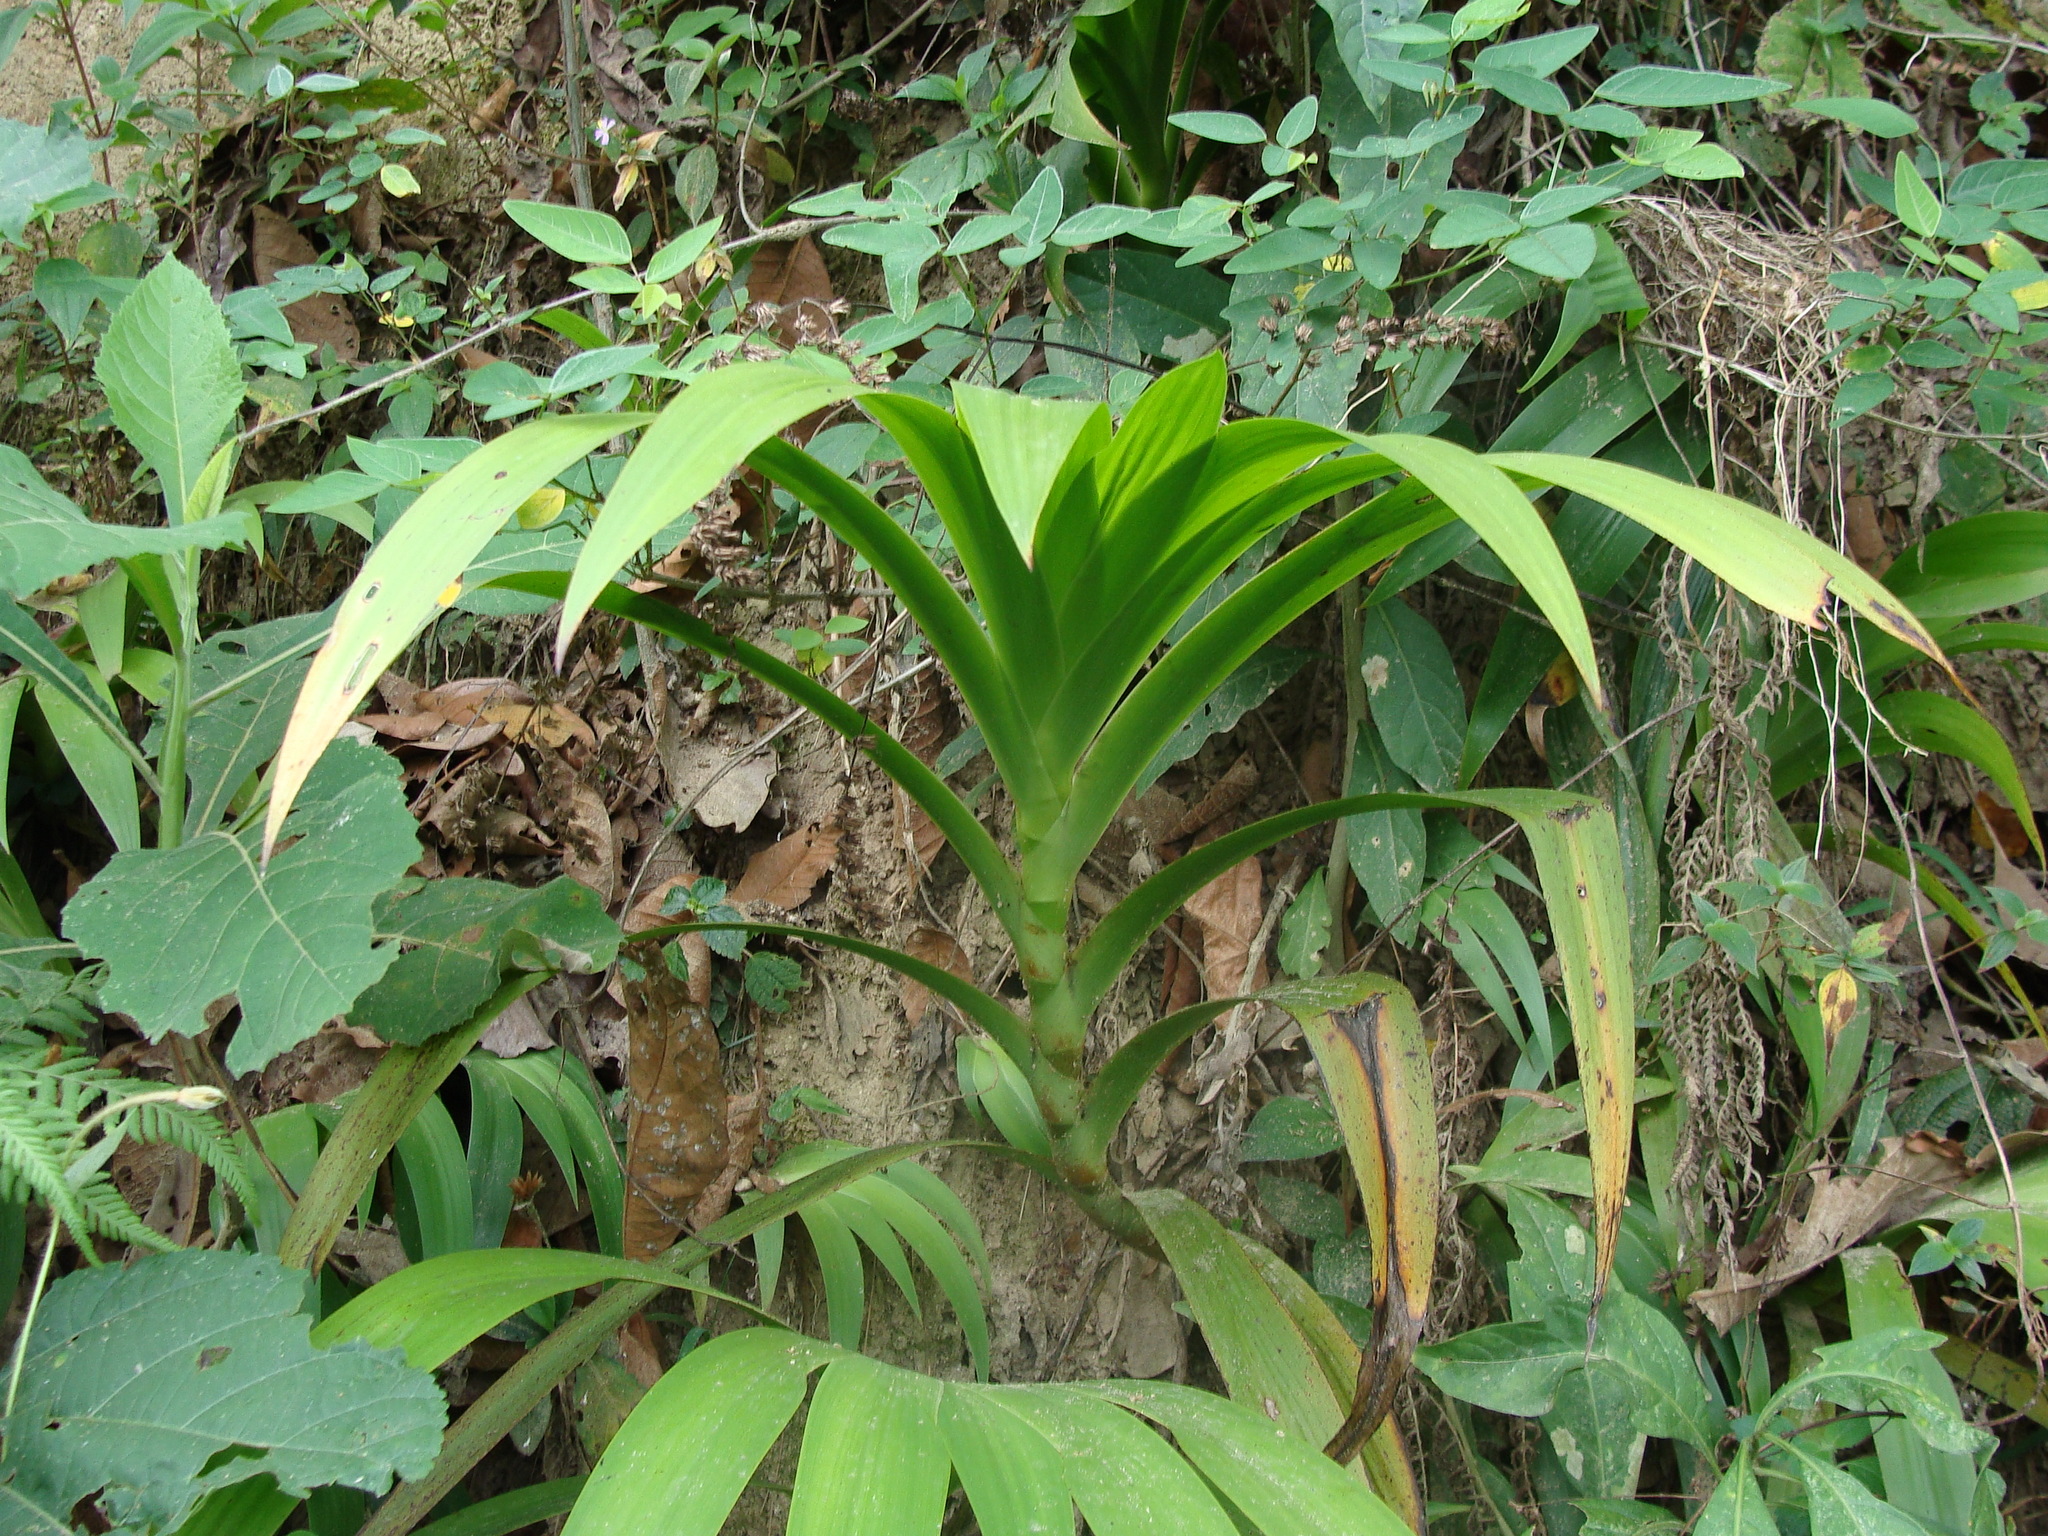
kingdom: Plantae
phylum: Tracheophyta
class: Liliopsida
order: Commelinales
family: Haemodoraceae
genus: Xiphidium
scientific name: Xiphidium caeruleum
